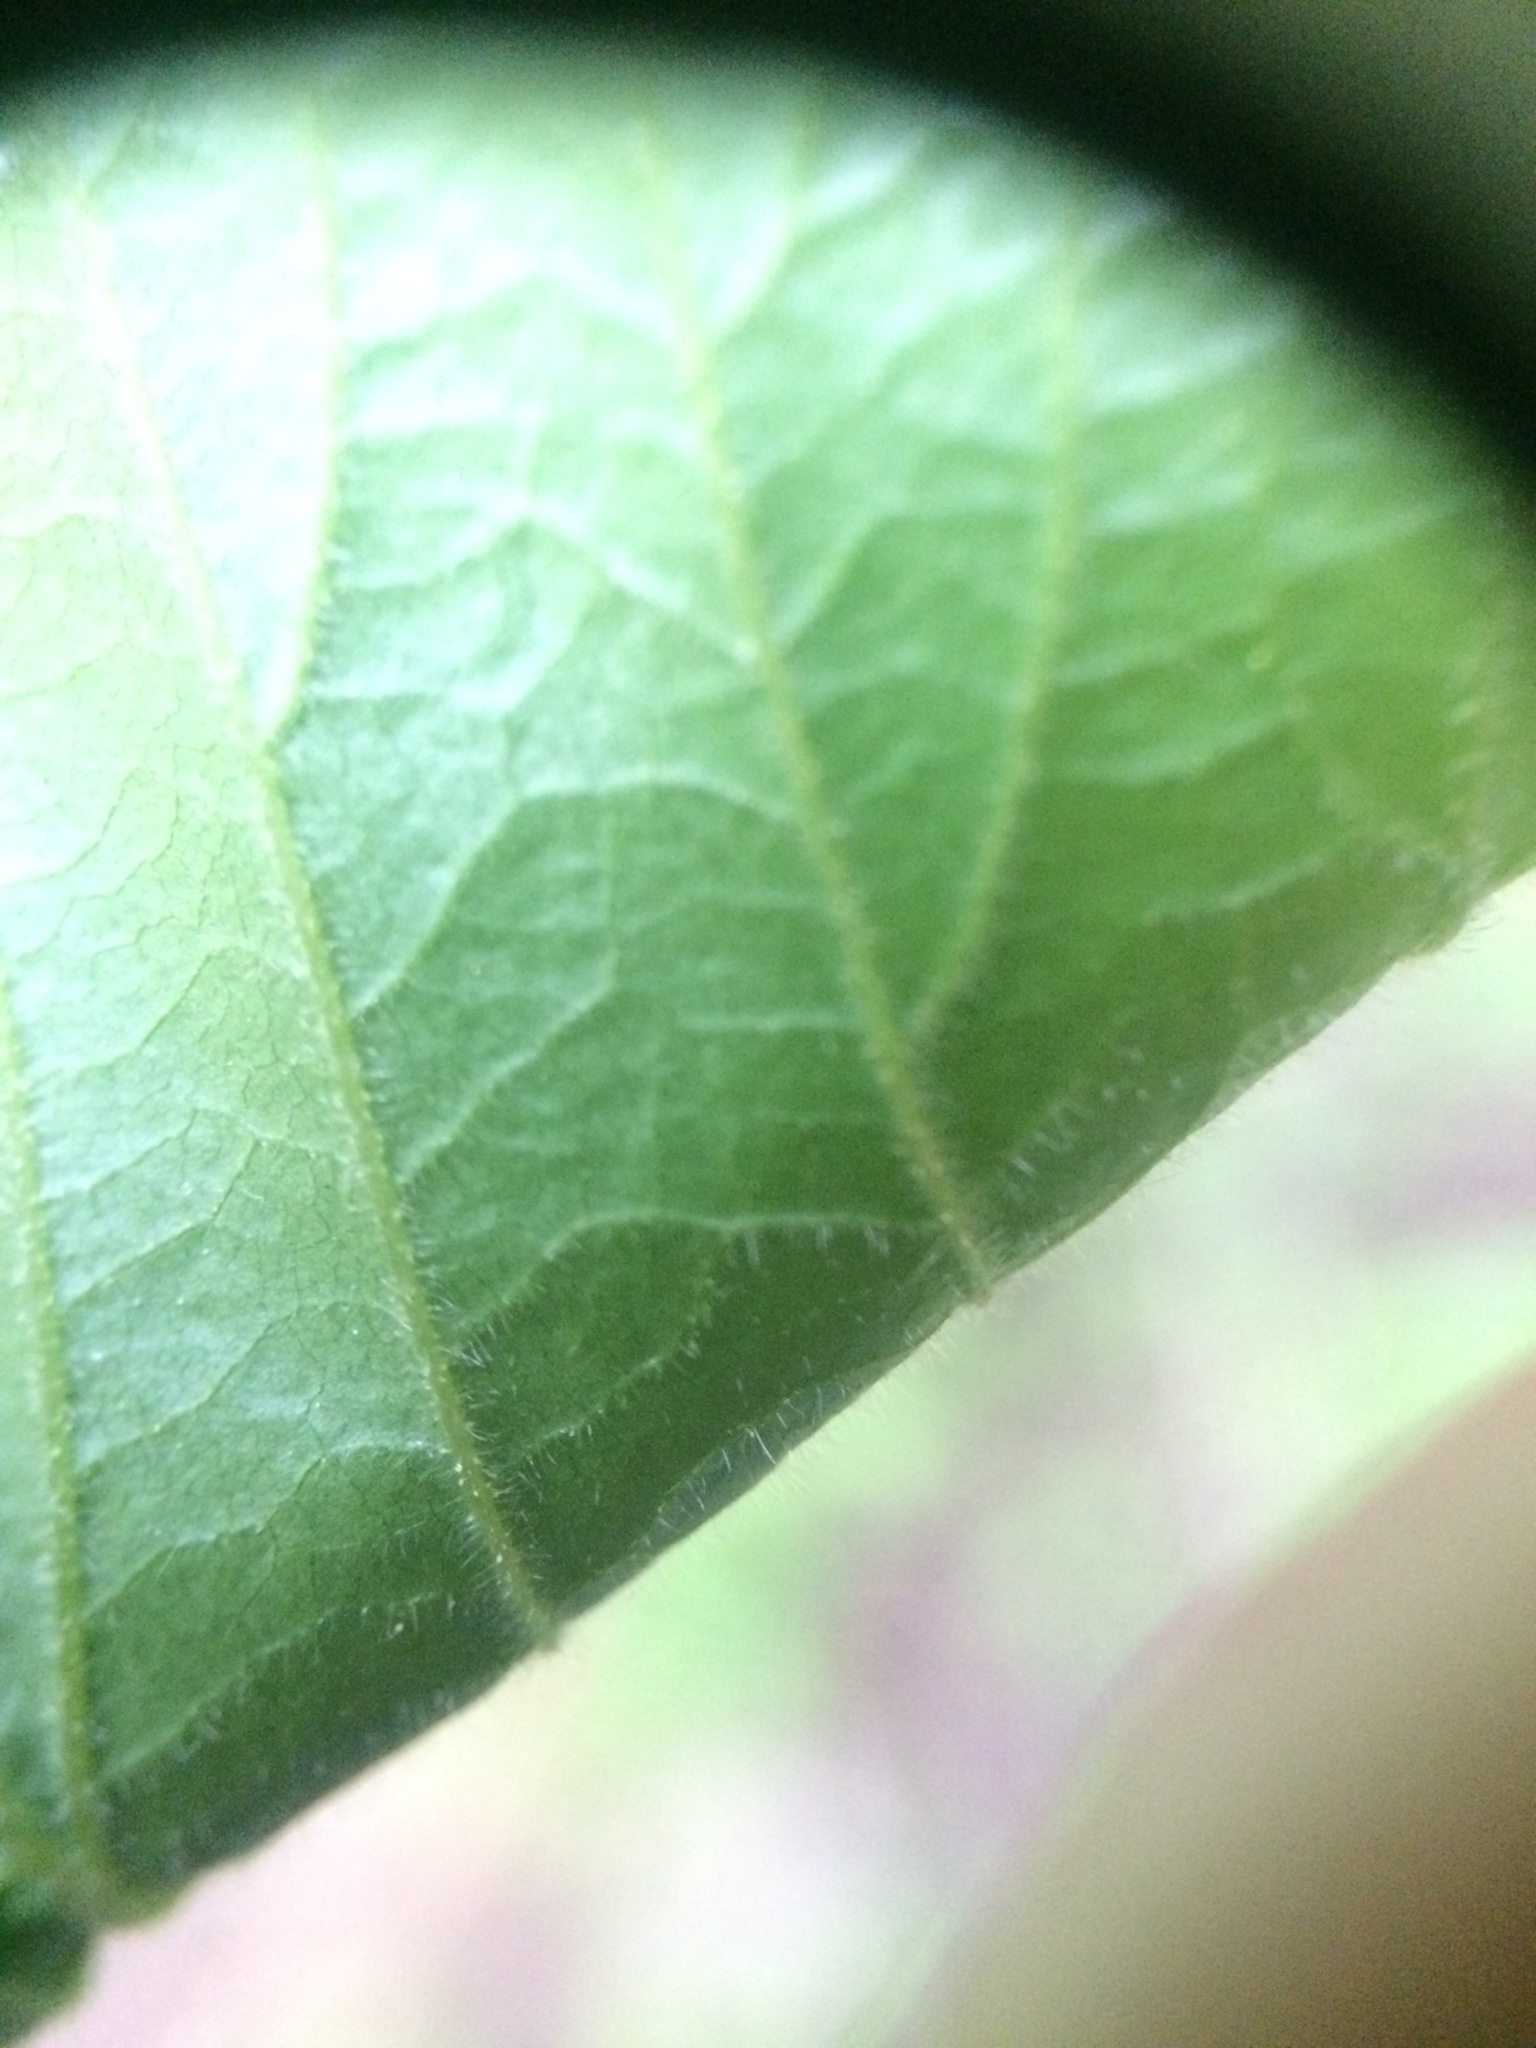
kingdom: Plantae
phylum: Tracheophyta
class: Magnoliopsida
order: Rosales
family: Rosaceae
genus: Rubus
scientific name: Rubus pensilvanicus
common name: Pennsylvania blackberry
